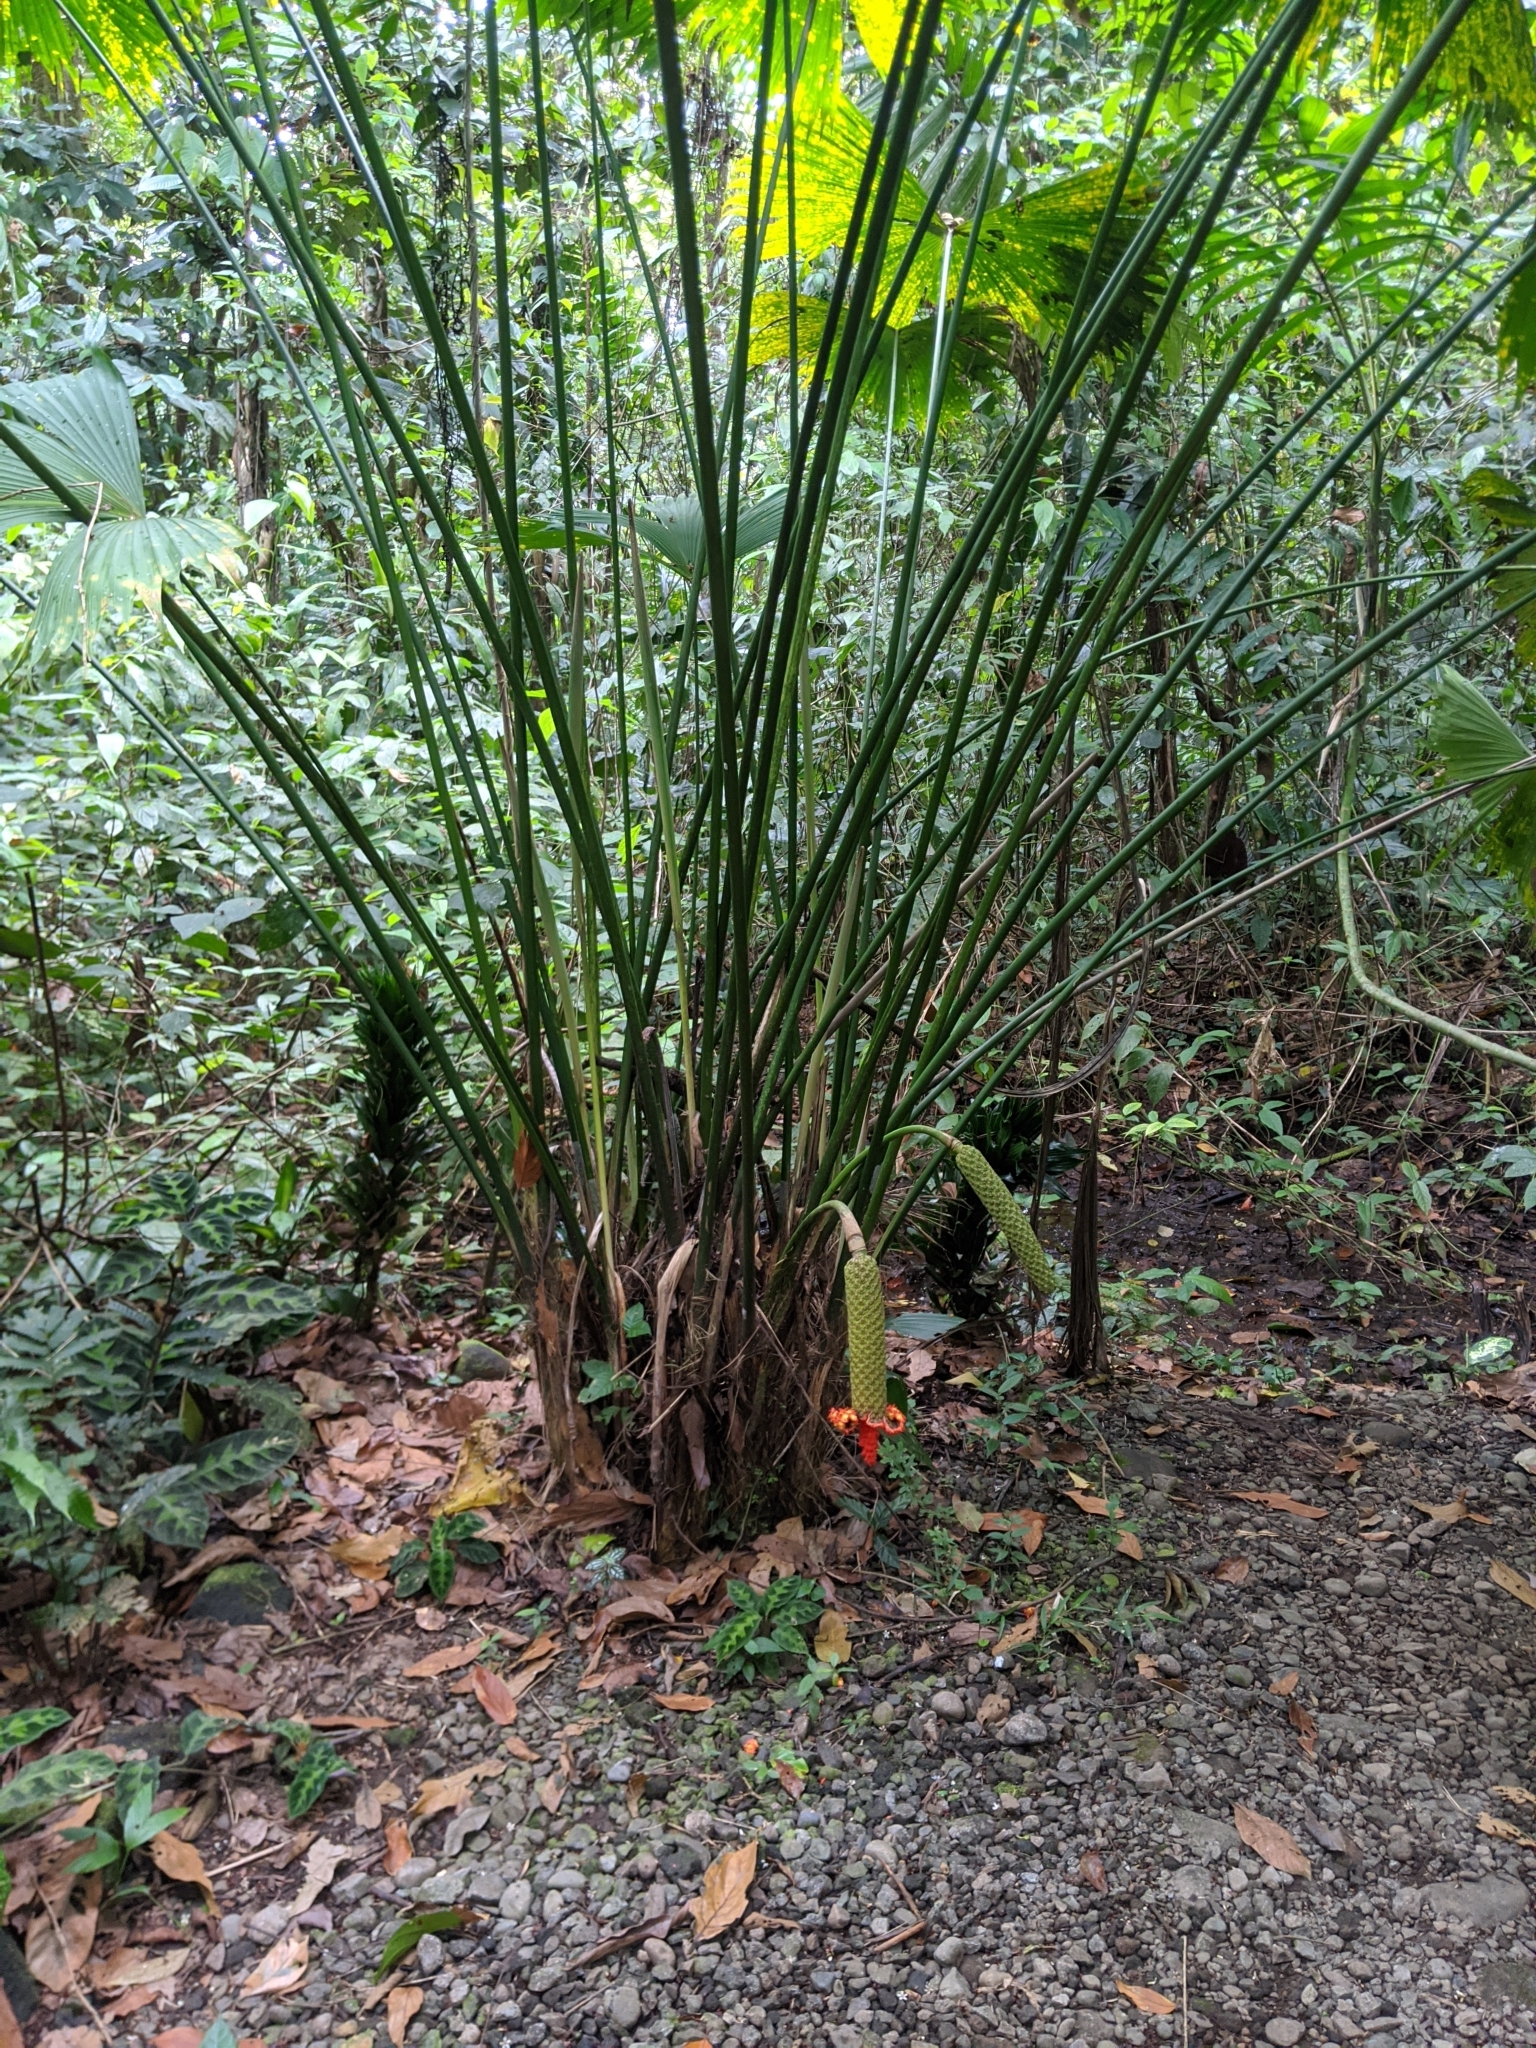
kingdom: Plantae
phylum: Tracheophyta
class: Liliopsida
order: Pandanales
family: Cyclanthaceae
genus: Carludovica
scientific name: Carludovica palmata
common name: Panama hat plant
